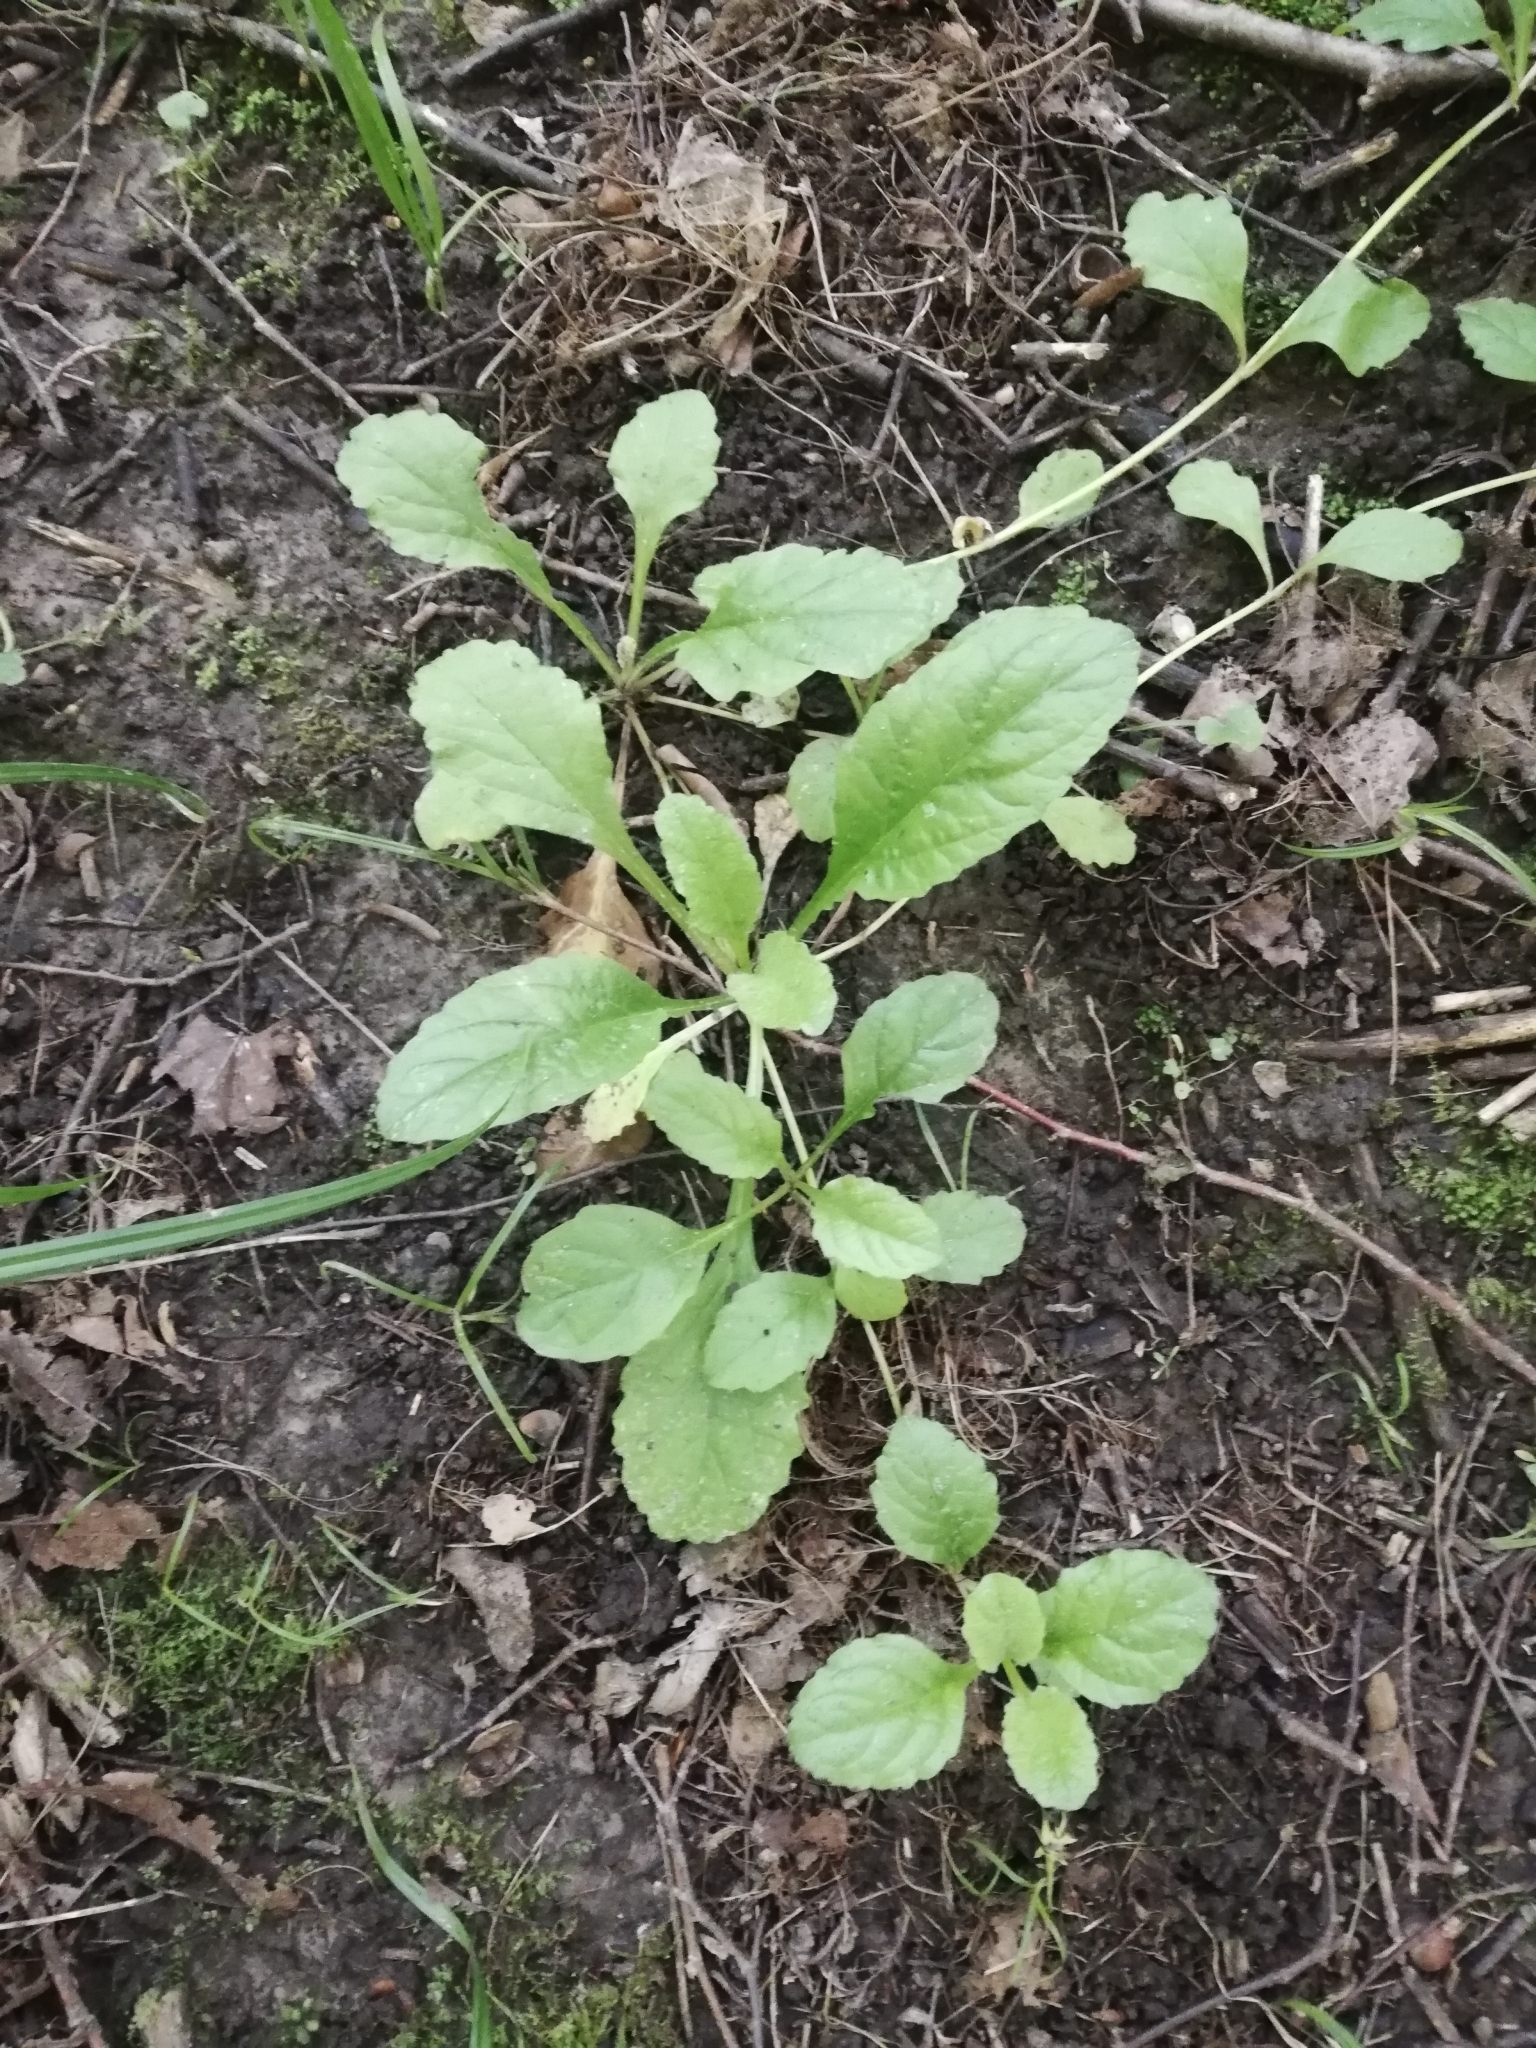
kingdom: Plantae
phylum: Tracheophyta
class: Magnoliopsida
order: Lamiales
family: Lamiaceae
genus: Ajuga
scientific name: Ajuga reptans
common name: Bugle
